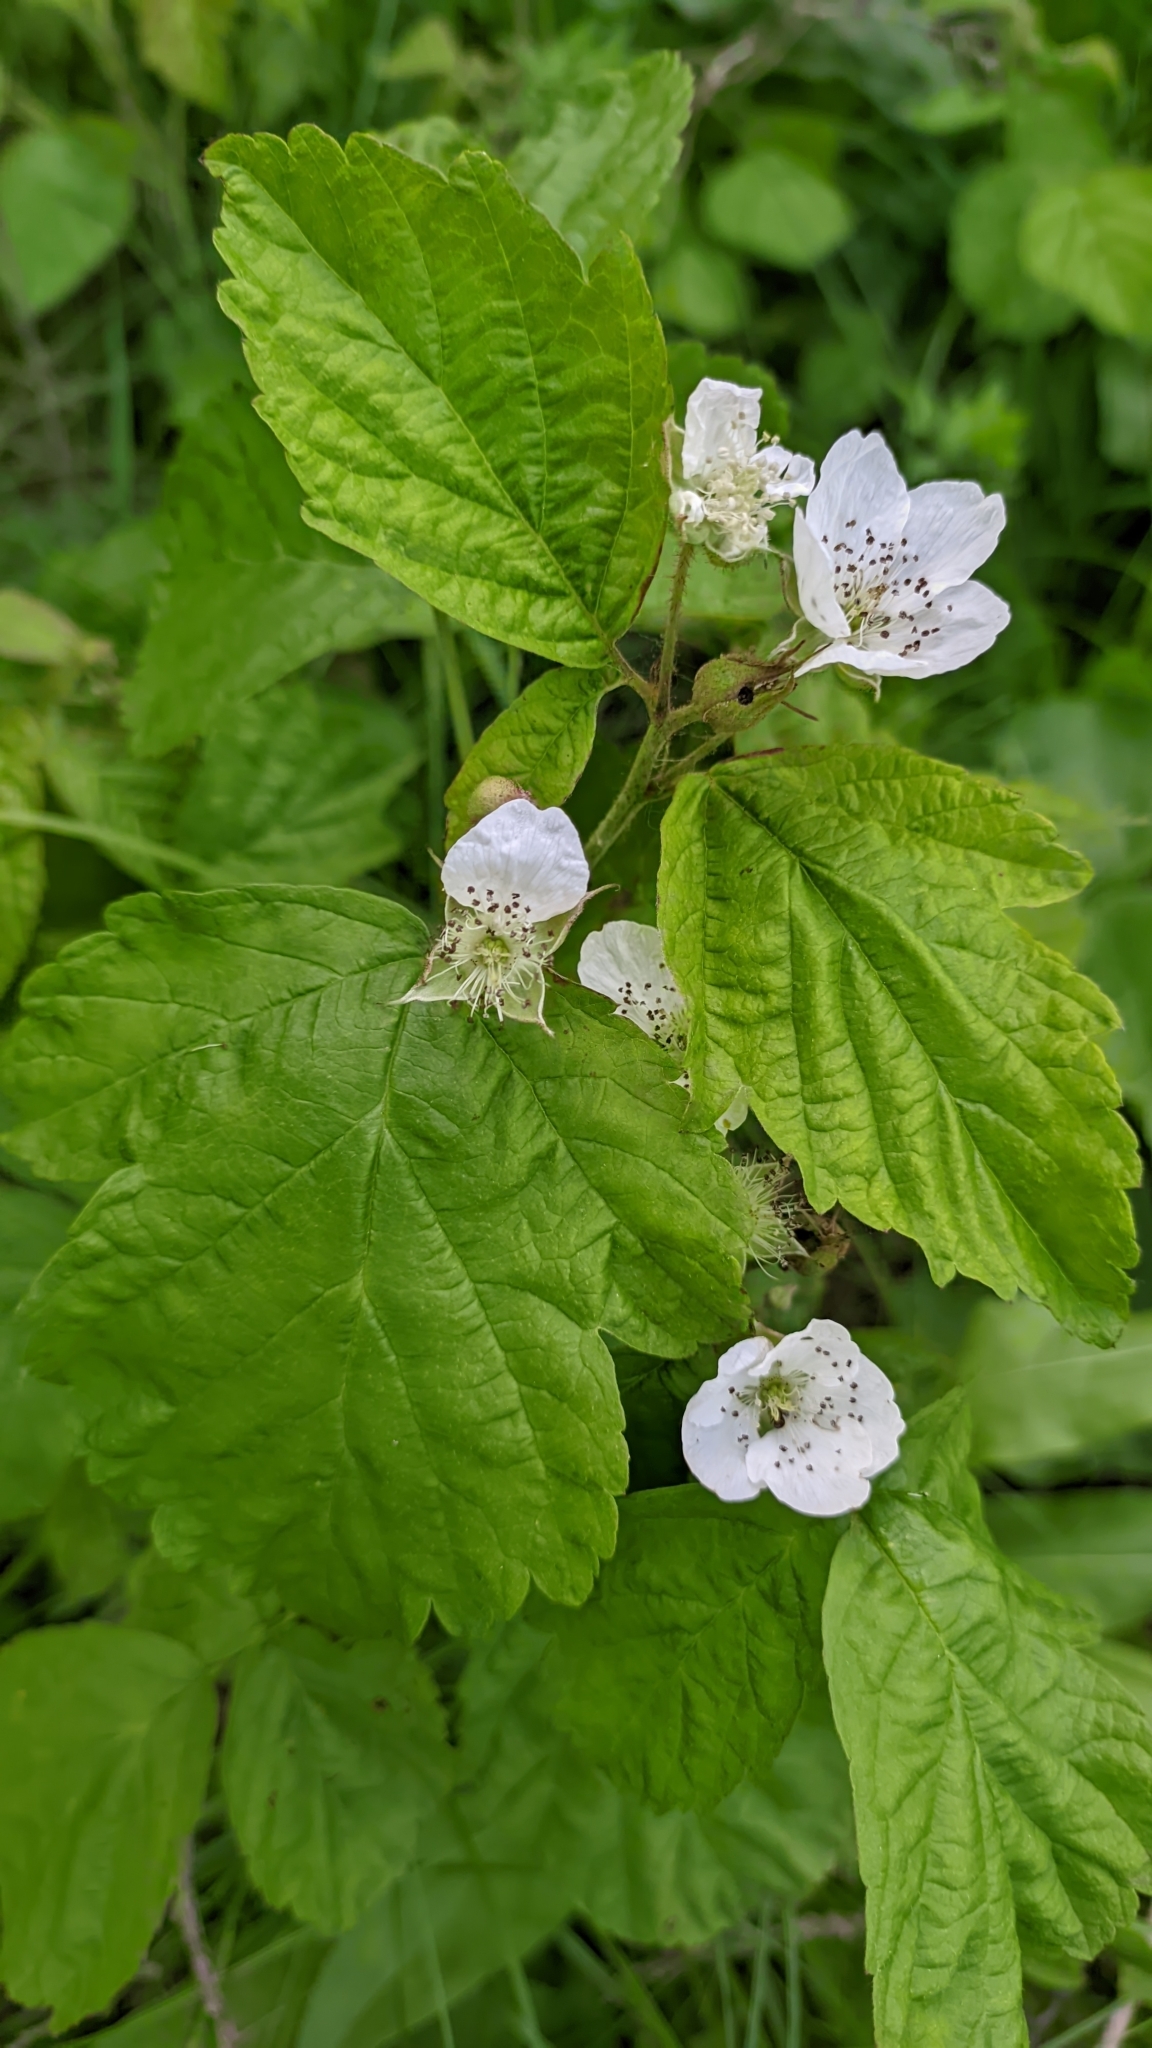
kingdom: Plantae
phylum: Tracheophyta
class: Magnoliopsida
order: Rosales
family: Rosaceae
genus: Rubus
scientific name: Rubus caesius
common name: Dewberry
